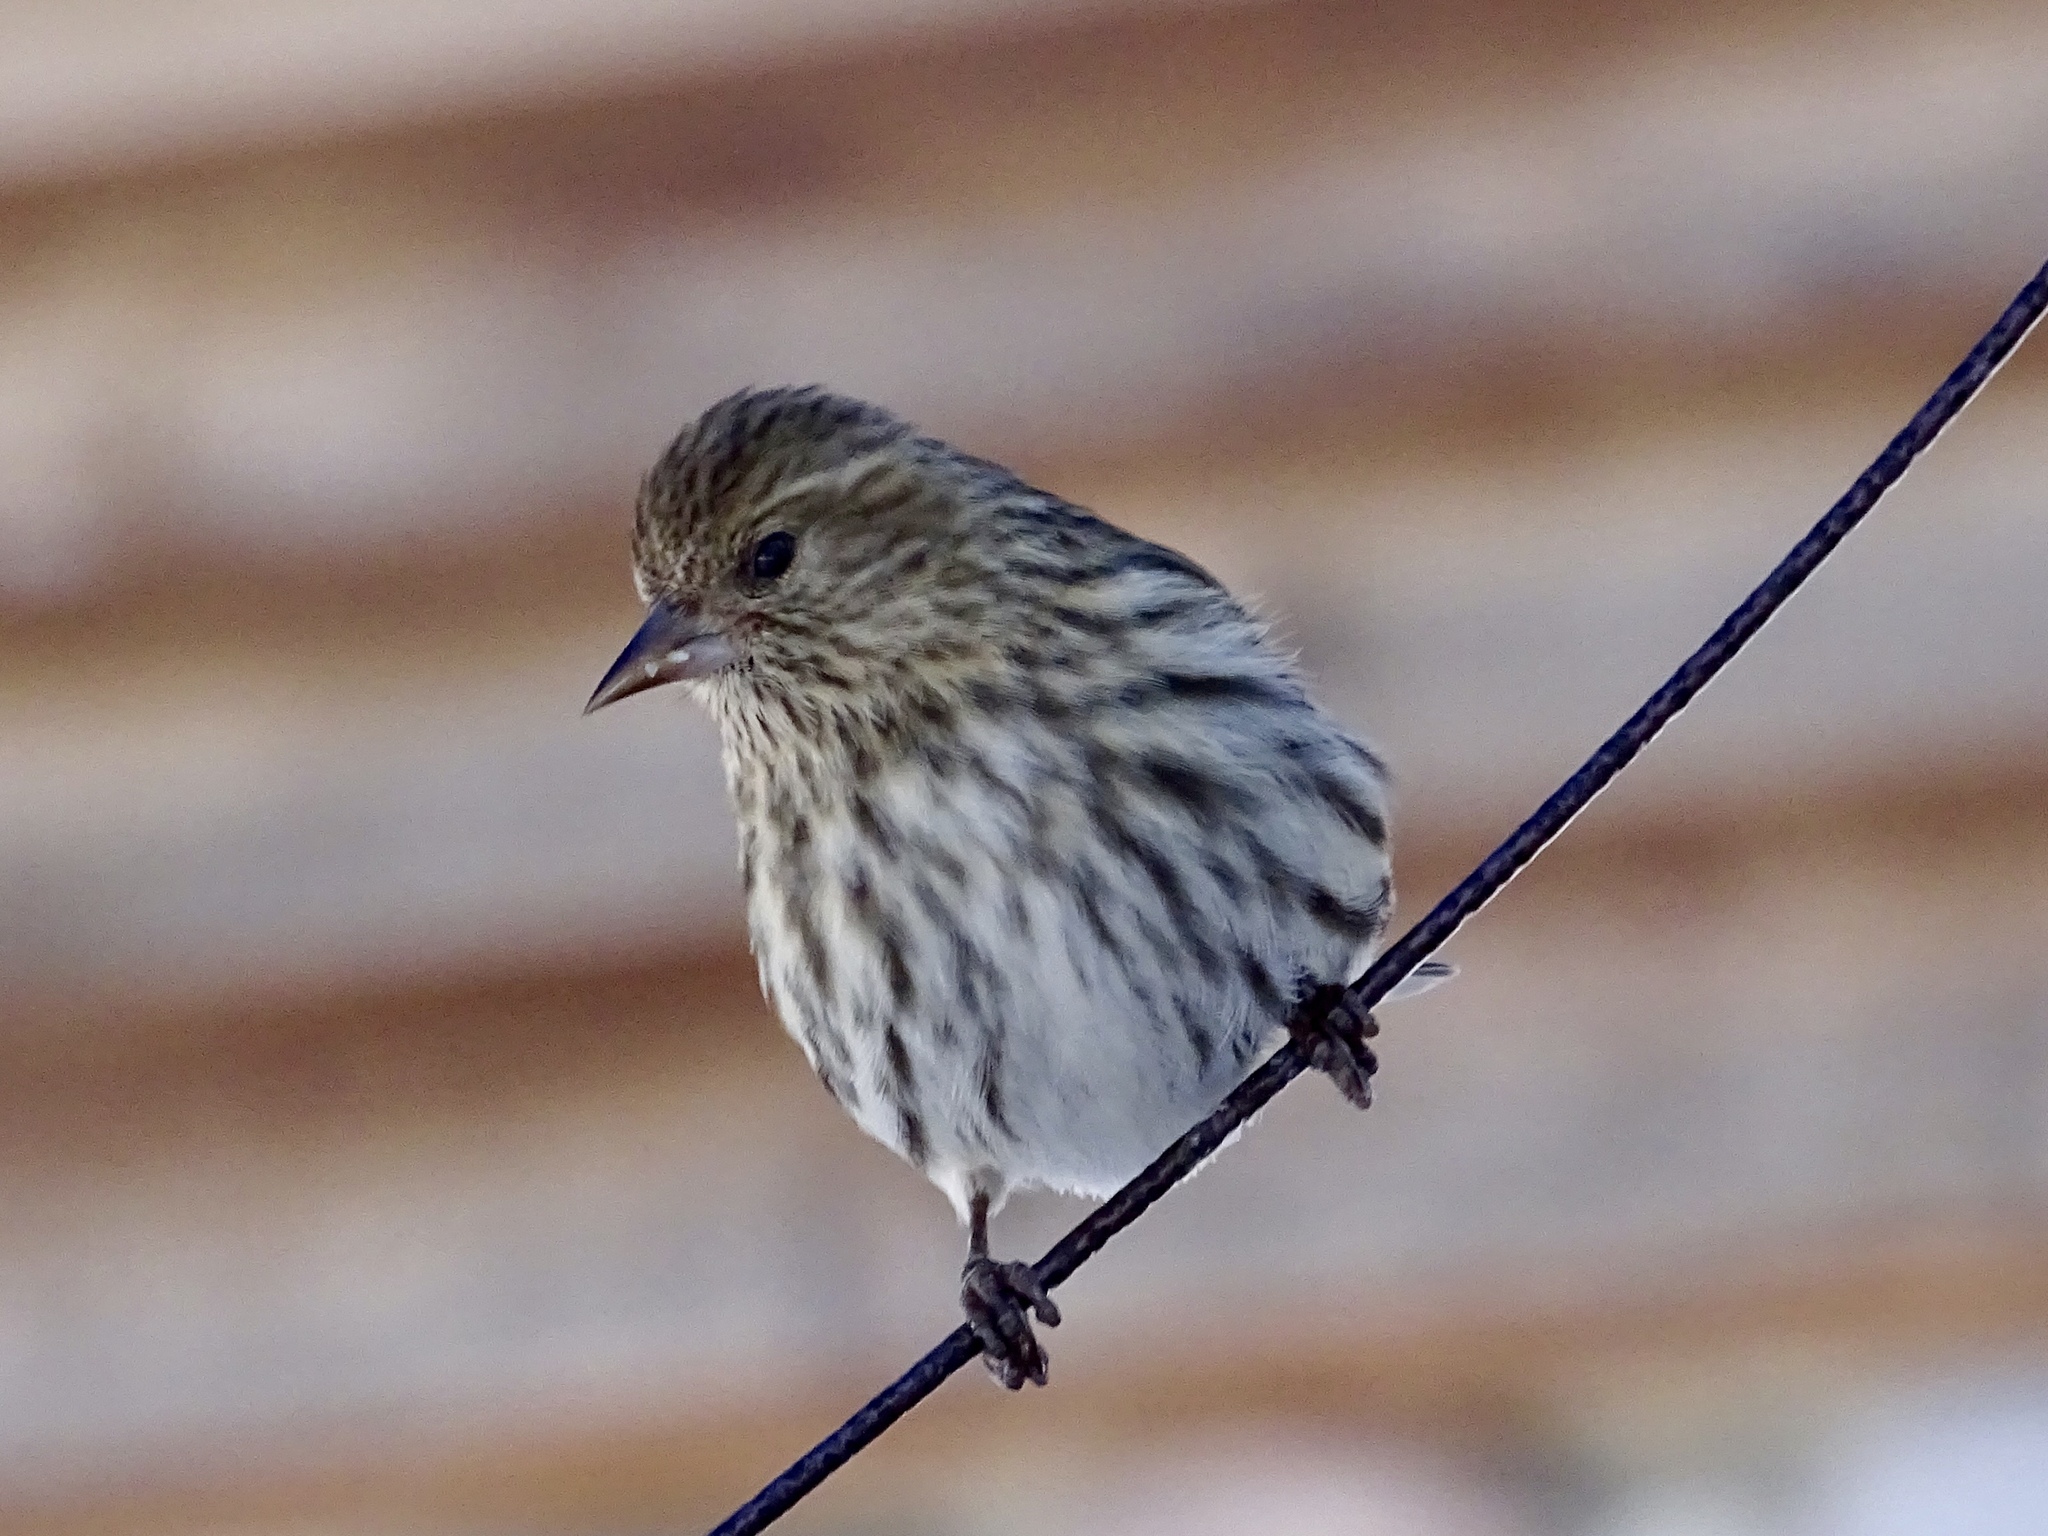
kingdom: Animalia
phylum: Chordata
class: Aves
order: Passeriformes
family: Fringillidae
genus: Spinus
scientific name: Spinus pinus
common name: Pine siskin
